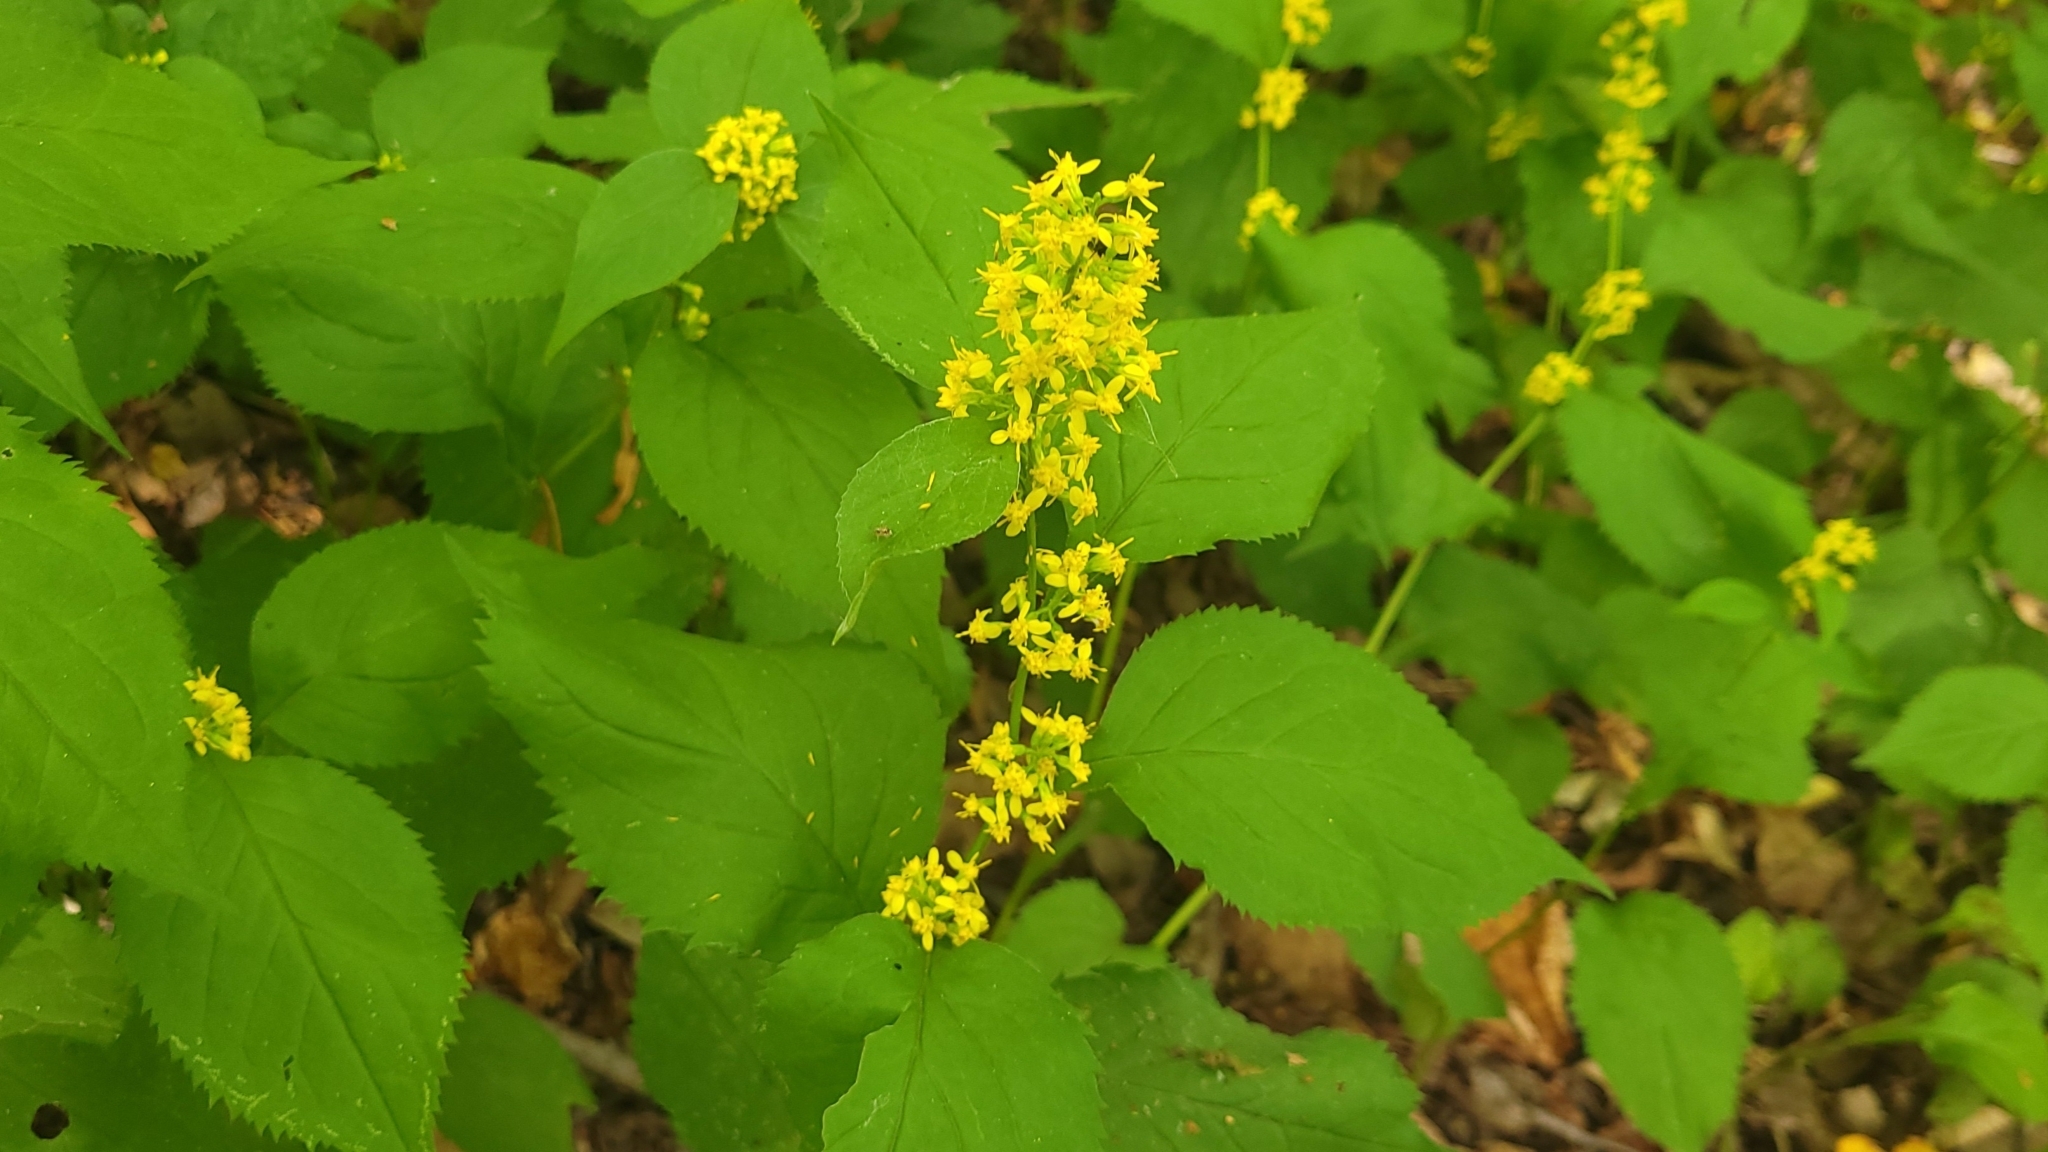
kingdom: Plantae
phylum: Tracheophyta
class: Magnoliopsida
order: Asterales
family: Asteraceae
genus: Solidago
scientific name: Solidago flexicaulis
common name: Zig-zag goldenrod
